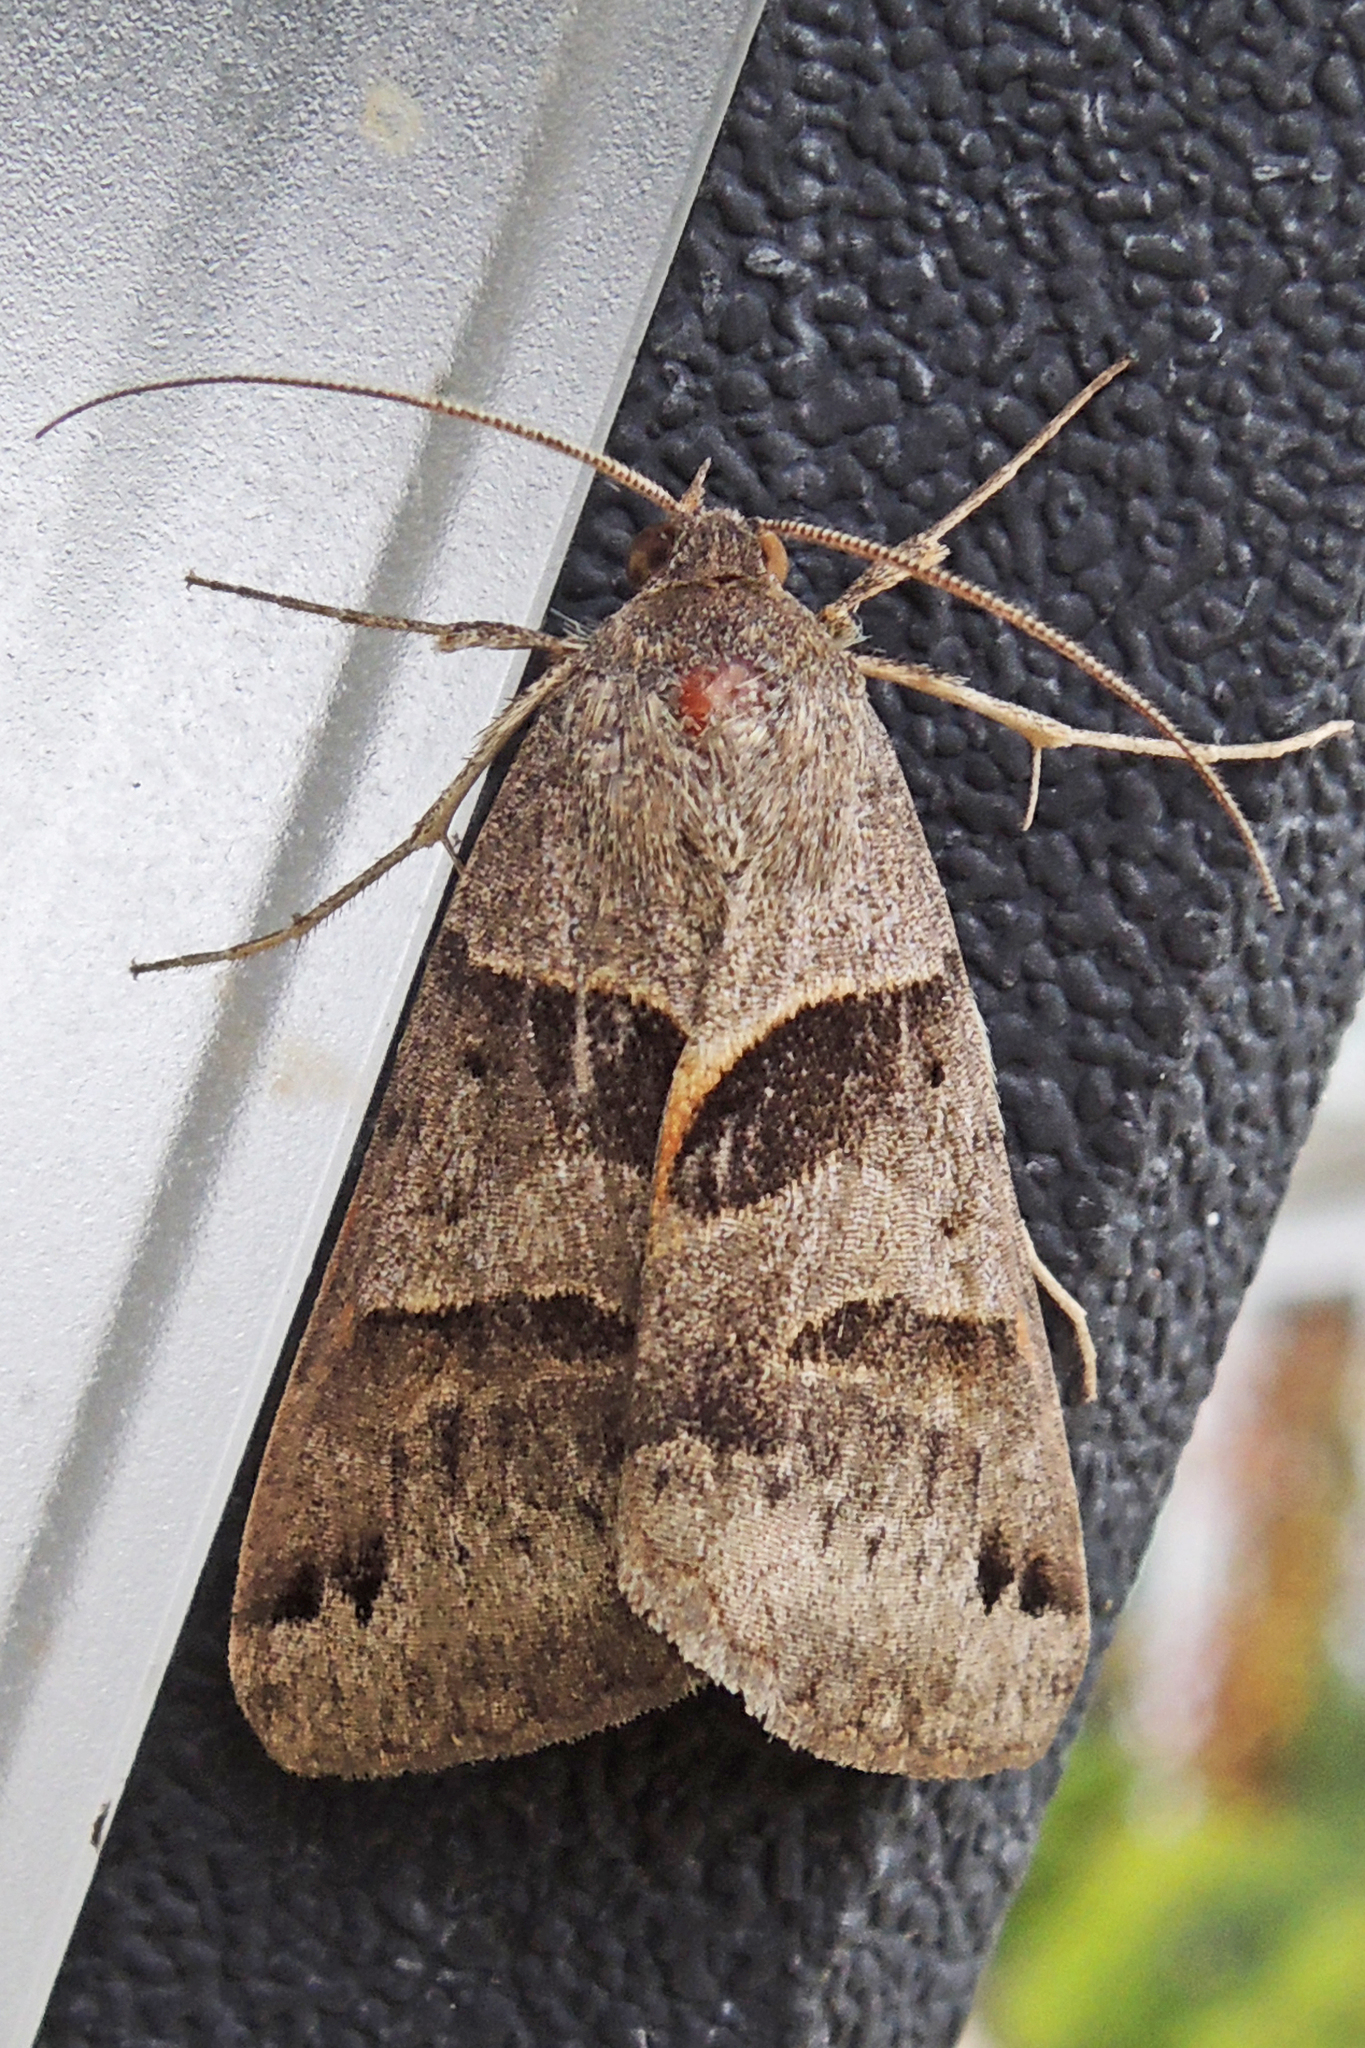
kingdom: Animalia
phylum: Arthropoda
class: Insecta
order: Lepidoptera
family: Erebidae
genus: Caenurgina
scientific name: Caenurgina erechtea
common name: Forage looper moth
